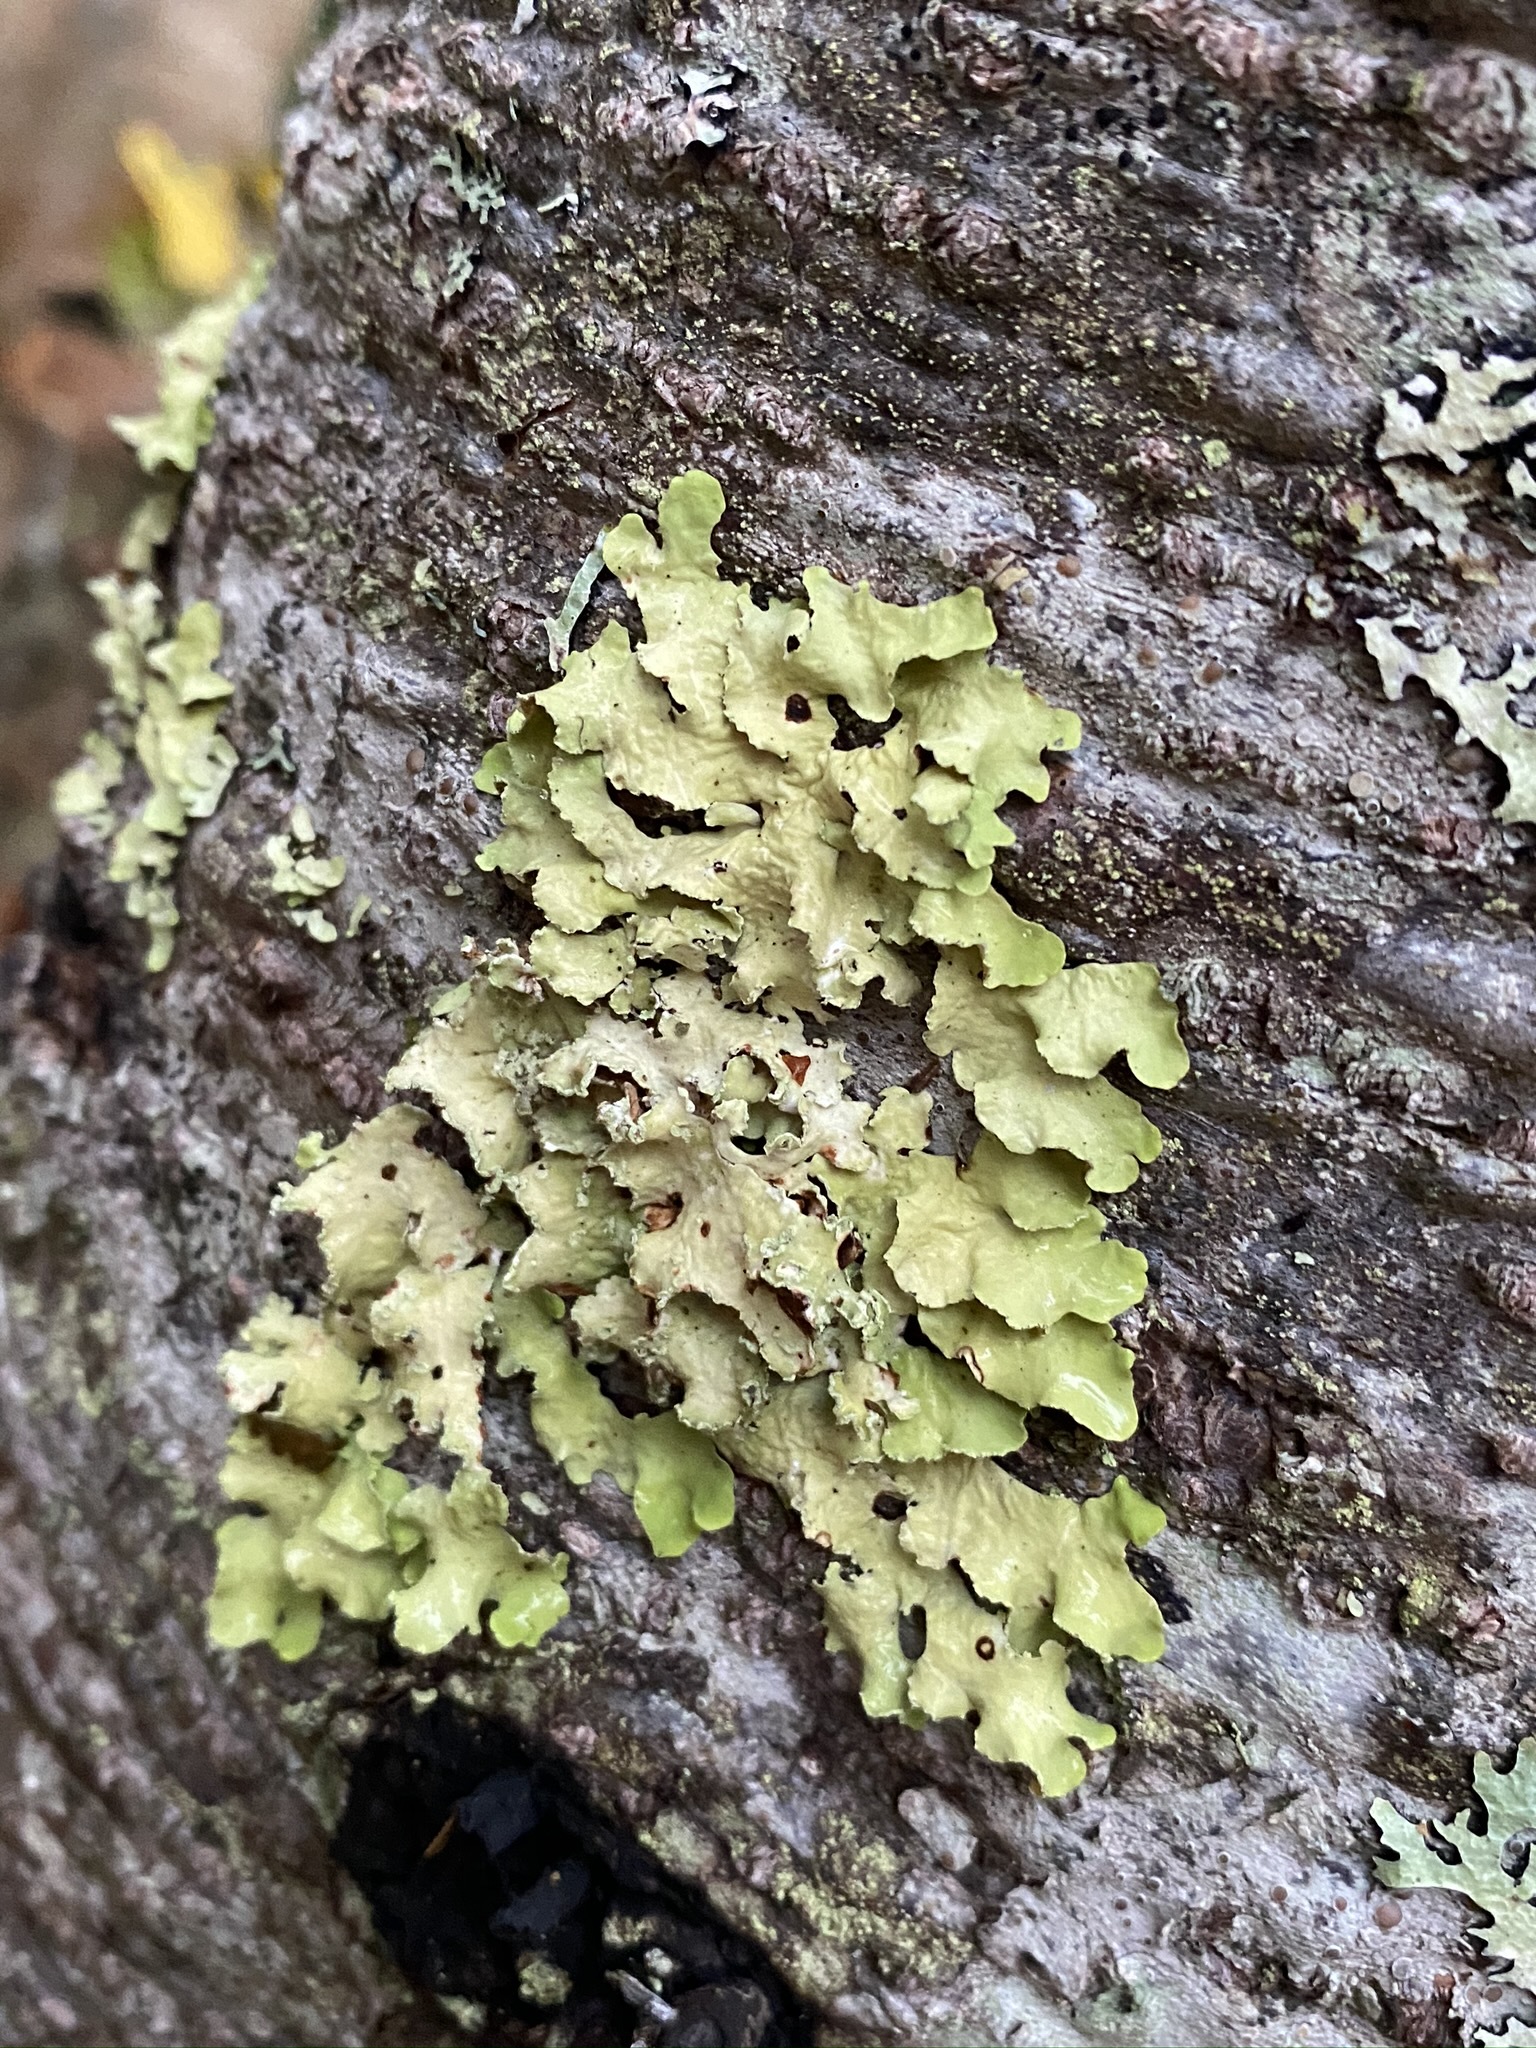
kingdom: Fungi
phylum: Ascomycota
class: Lecanoromycetes
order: Lecanorales
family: Parmeliaceae
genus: Usnocetraria
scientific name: Usnocetraria oakesiana
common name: Yellow ribbon lichen
